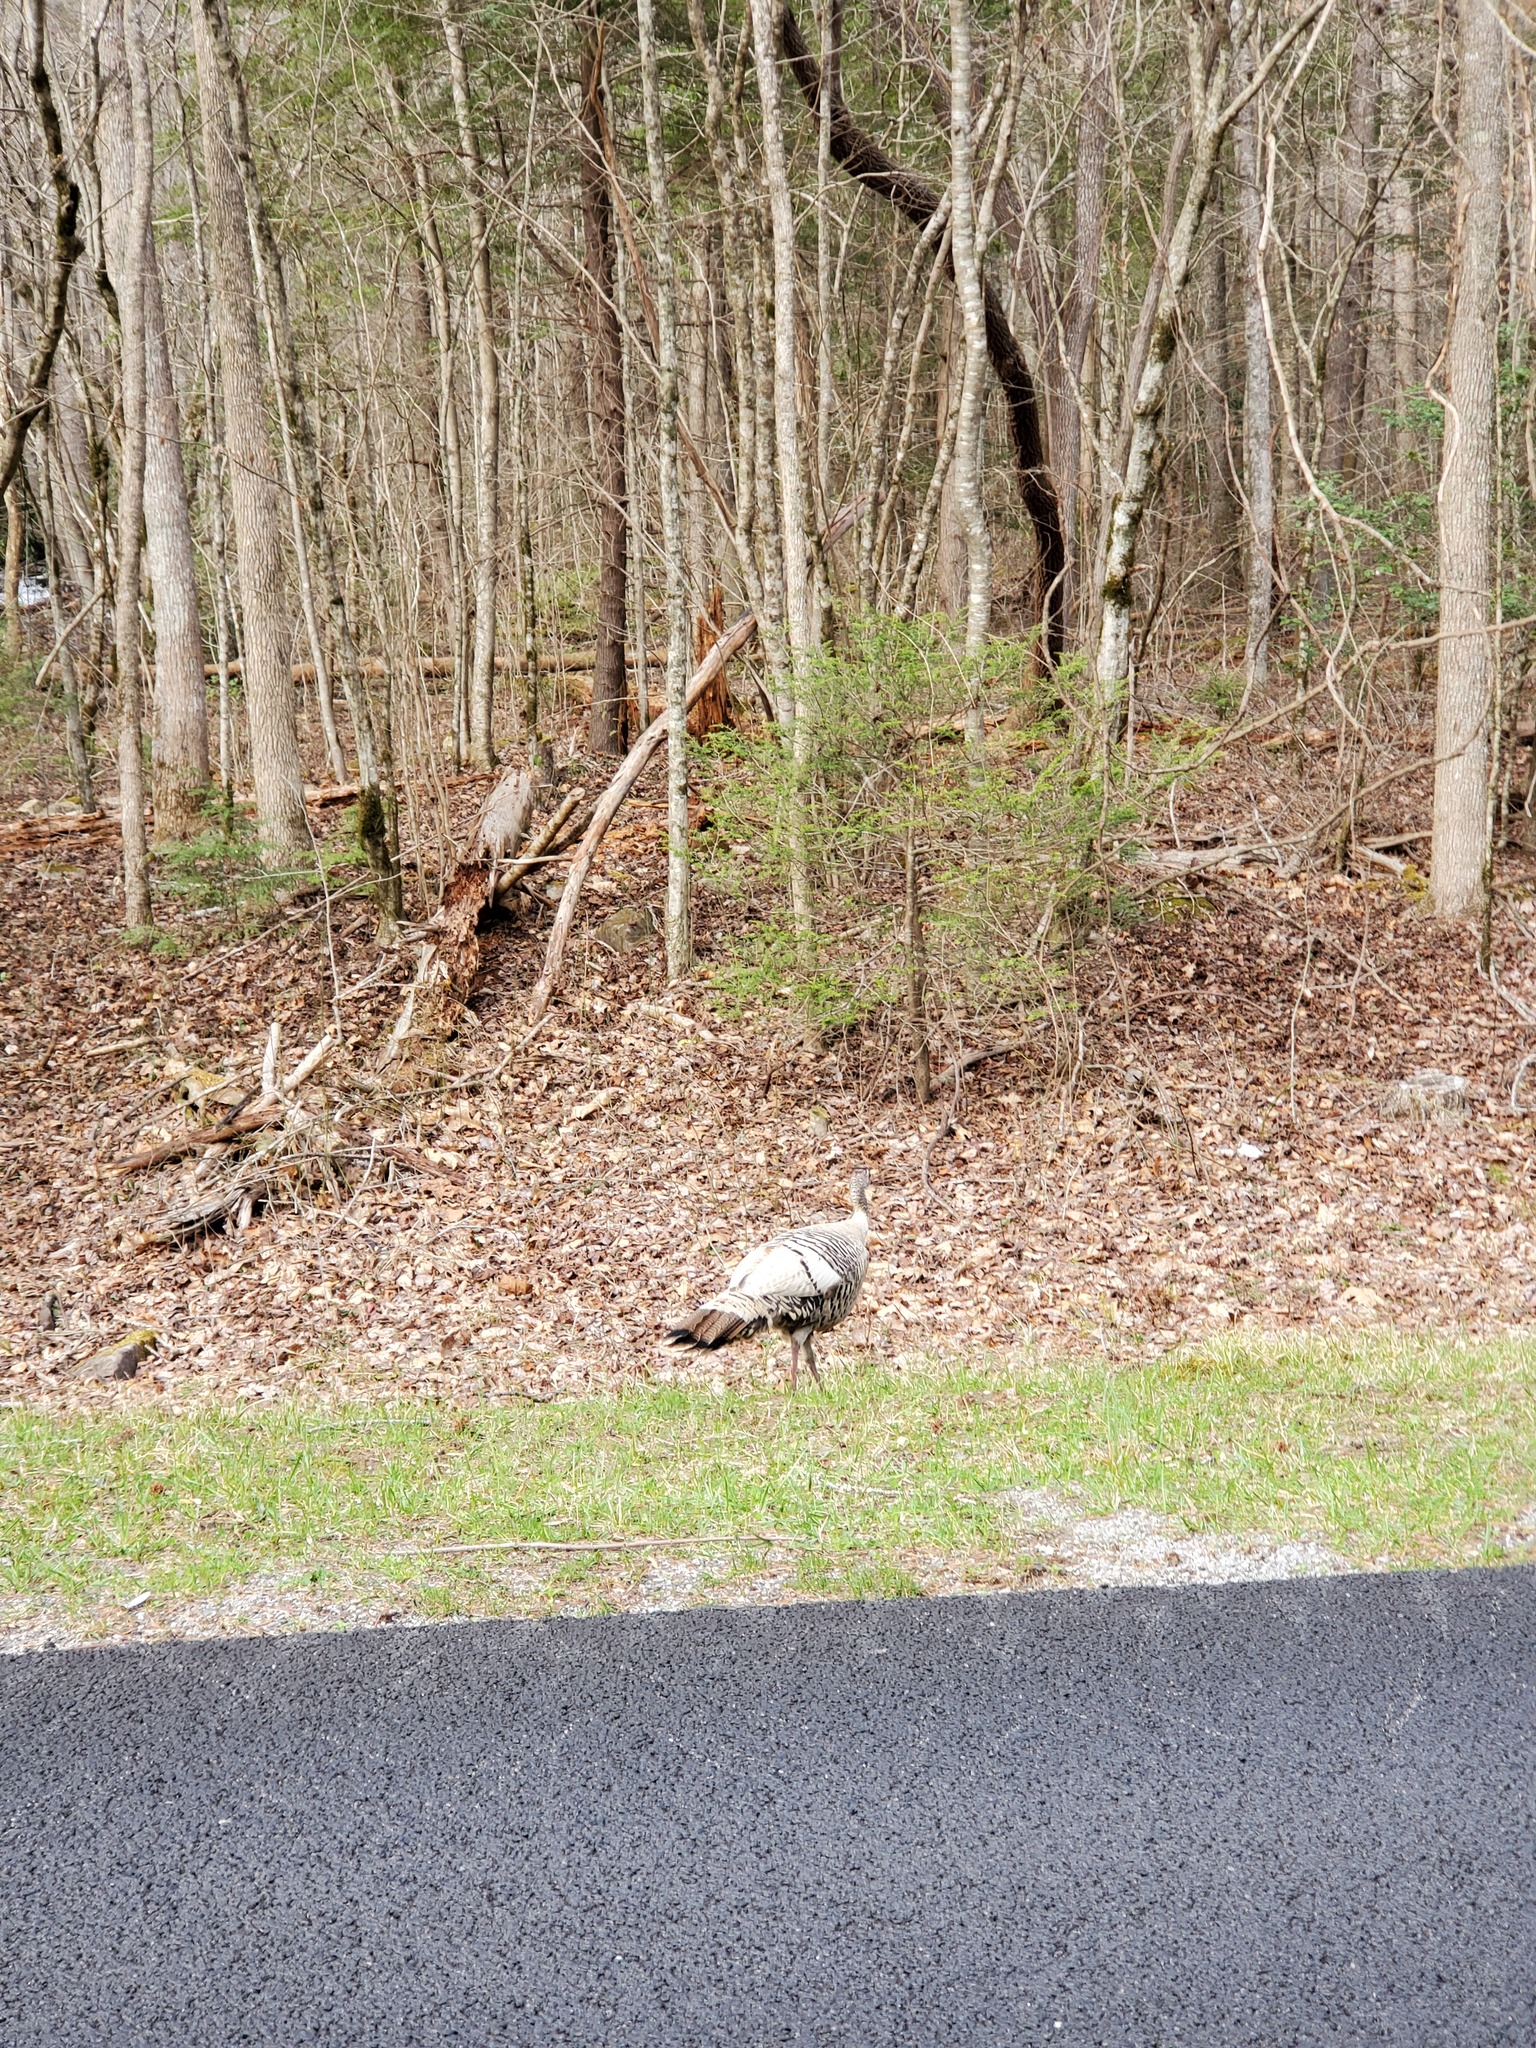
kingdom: Animalia
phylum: Chordata
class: Aves
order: Galliformes
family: Phasianidae
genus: Meleagris
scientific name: Meleagris gallopavo
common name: Wild turkey
